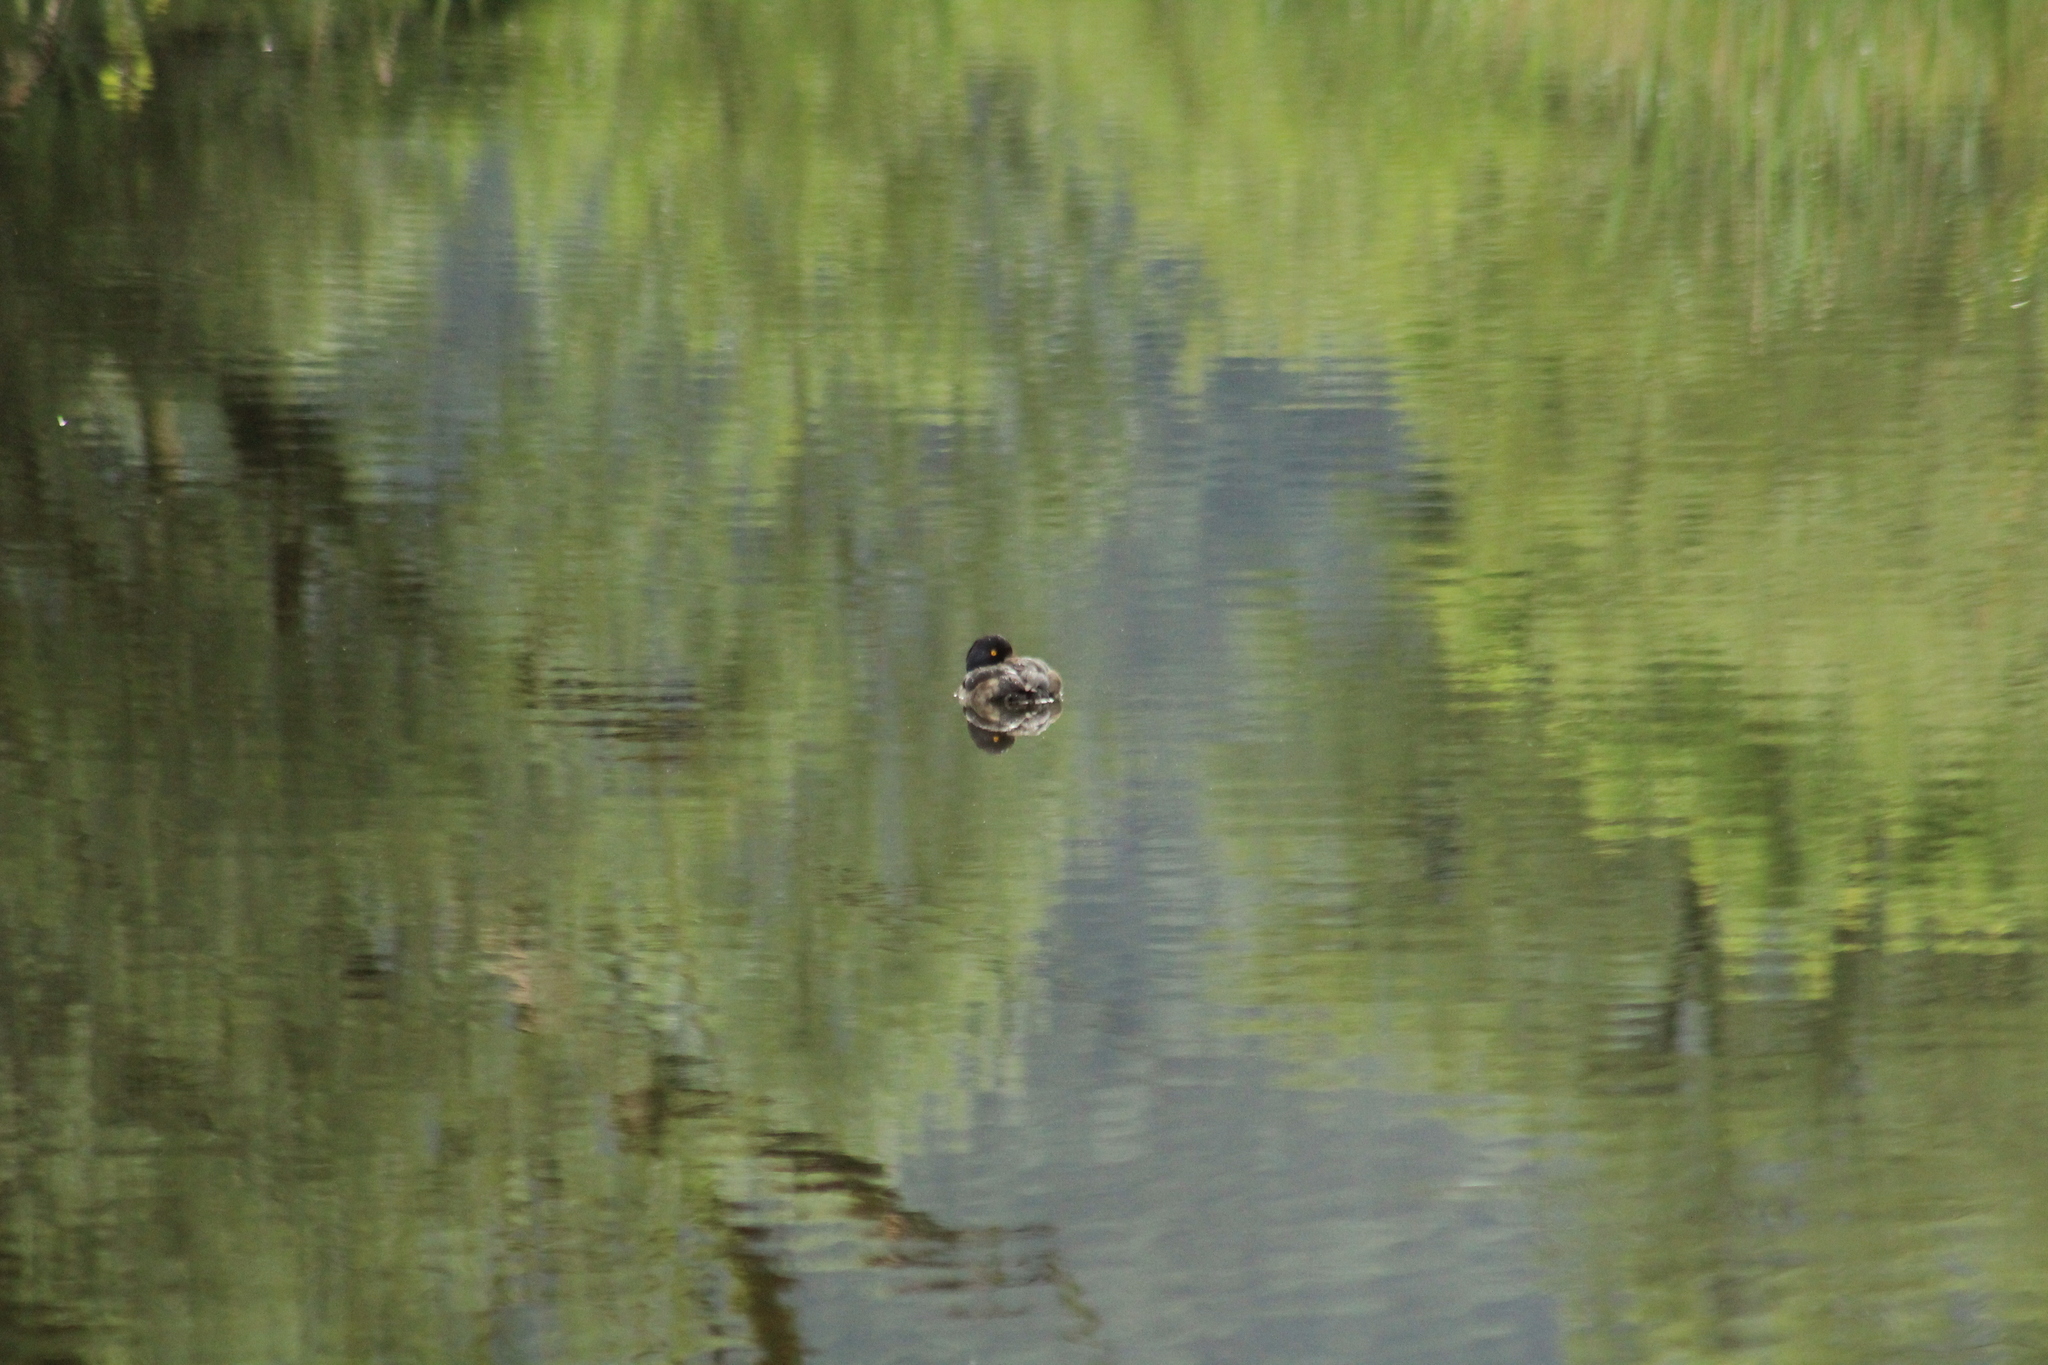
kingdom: Animalia
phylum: Chordata
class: Aves
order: Anseriformes
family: Anatidae
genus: Aythya
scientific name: Aythya fuligula
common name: Tufted duck
